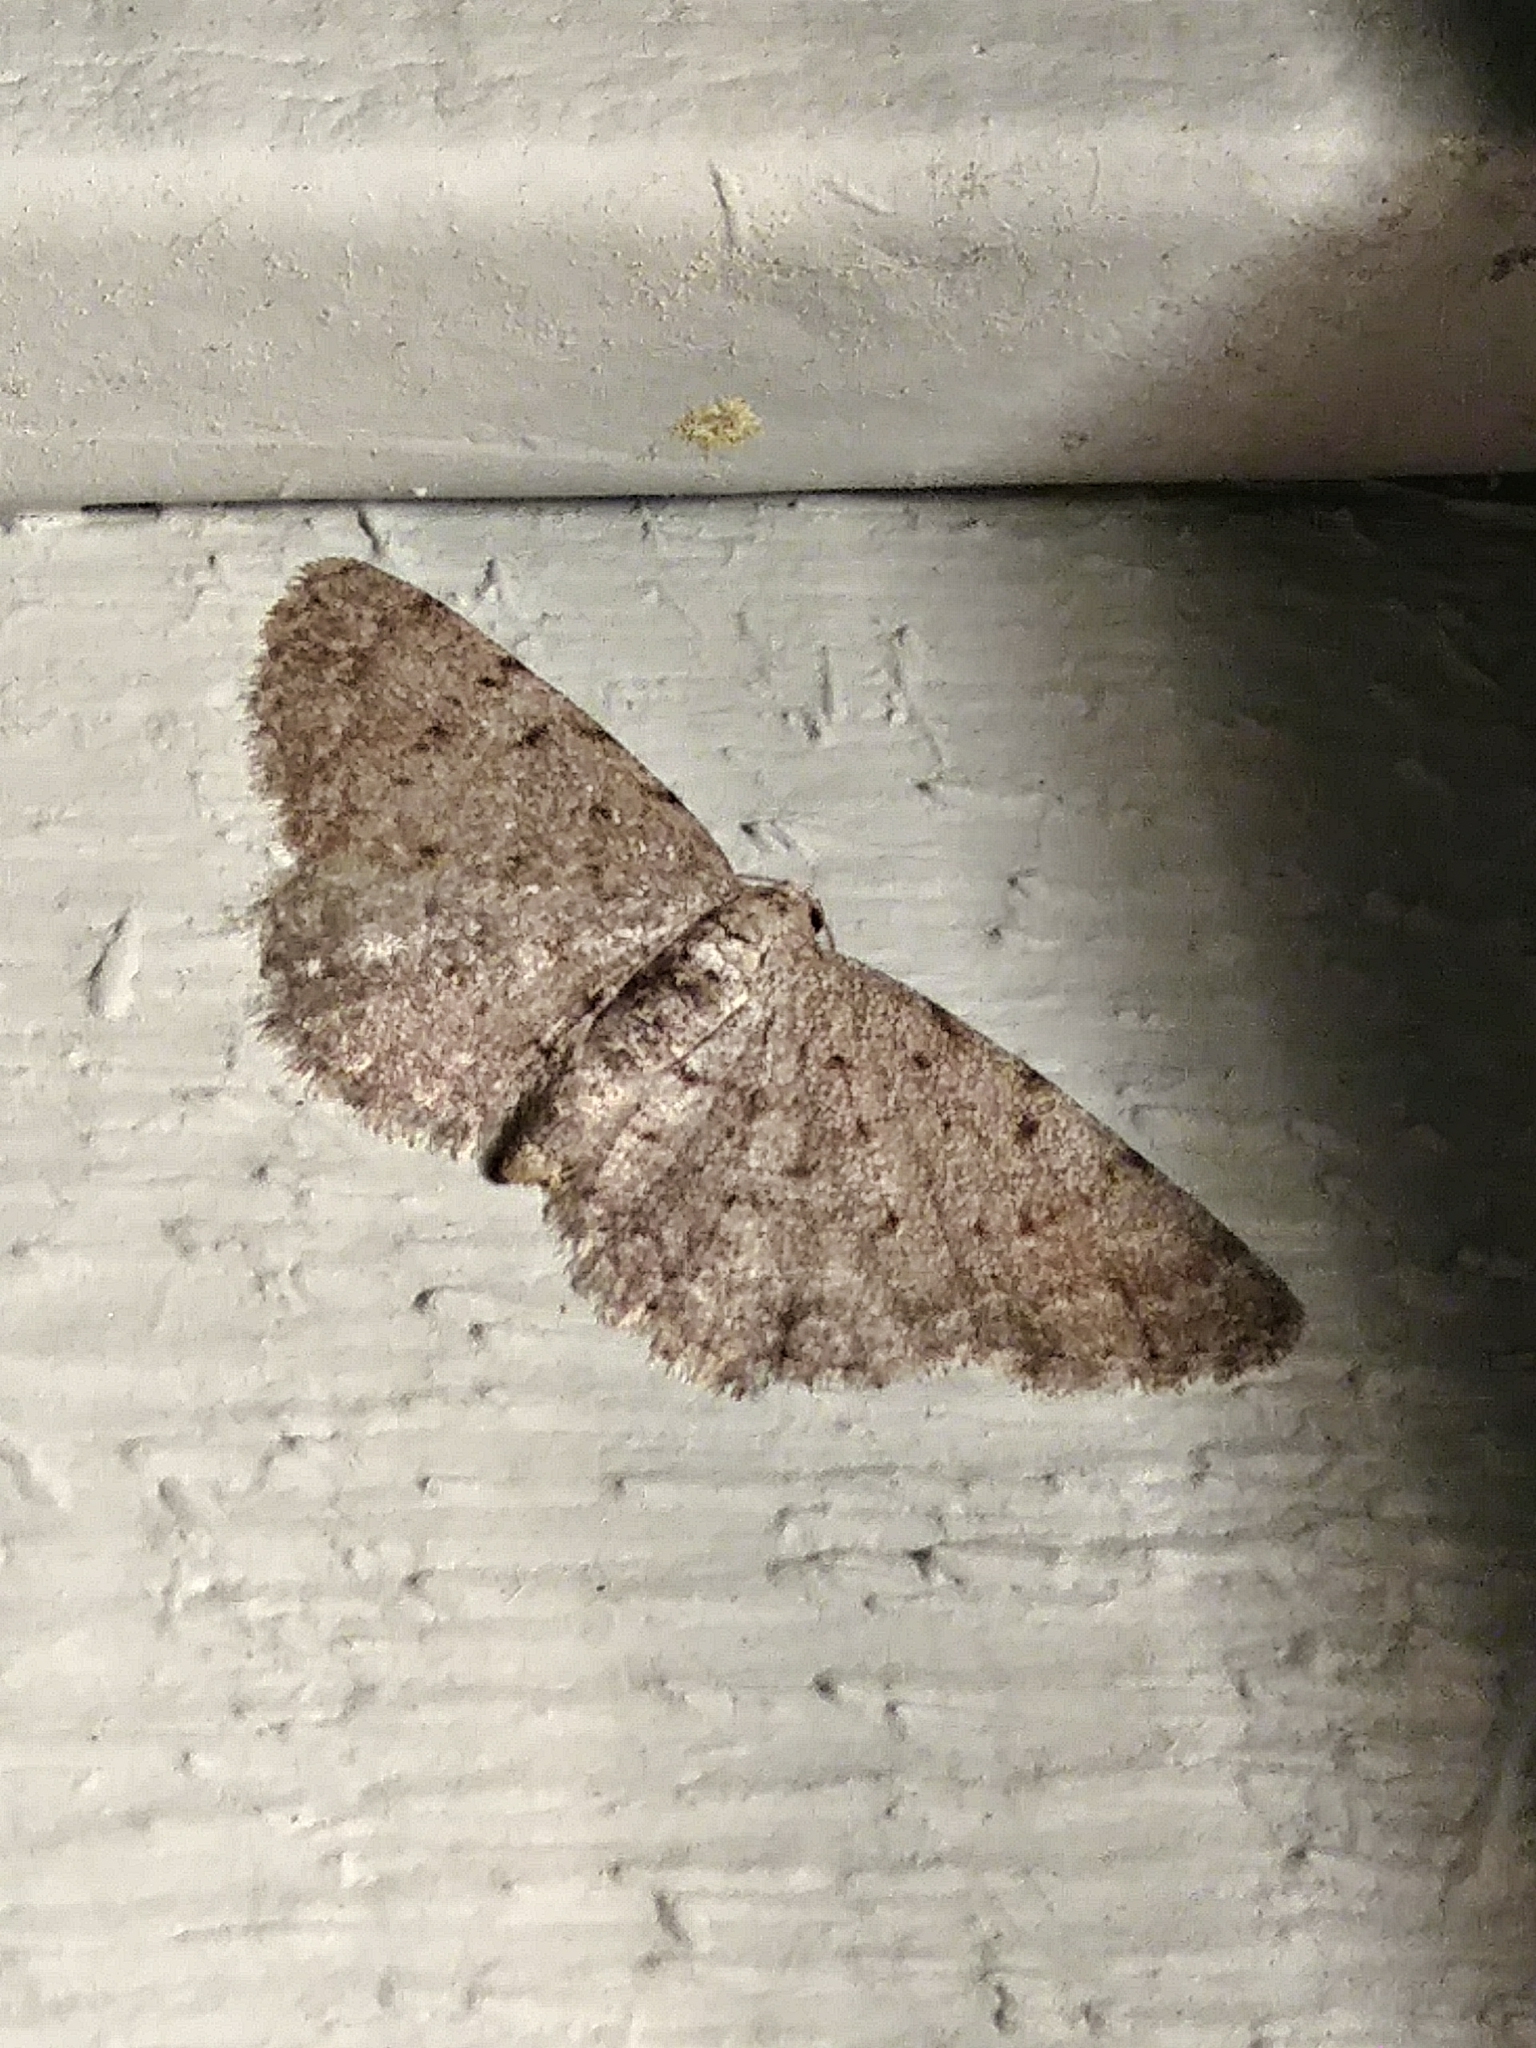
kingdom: Animalia
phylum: Arthropoda
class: Insecta
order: Lepidoptera
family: Geometridae
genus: Aethalura
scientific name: Aethalura intertexta
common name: Four-barred gray
